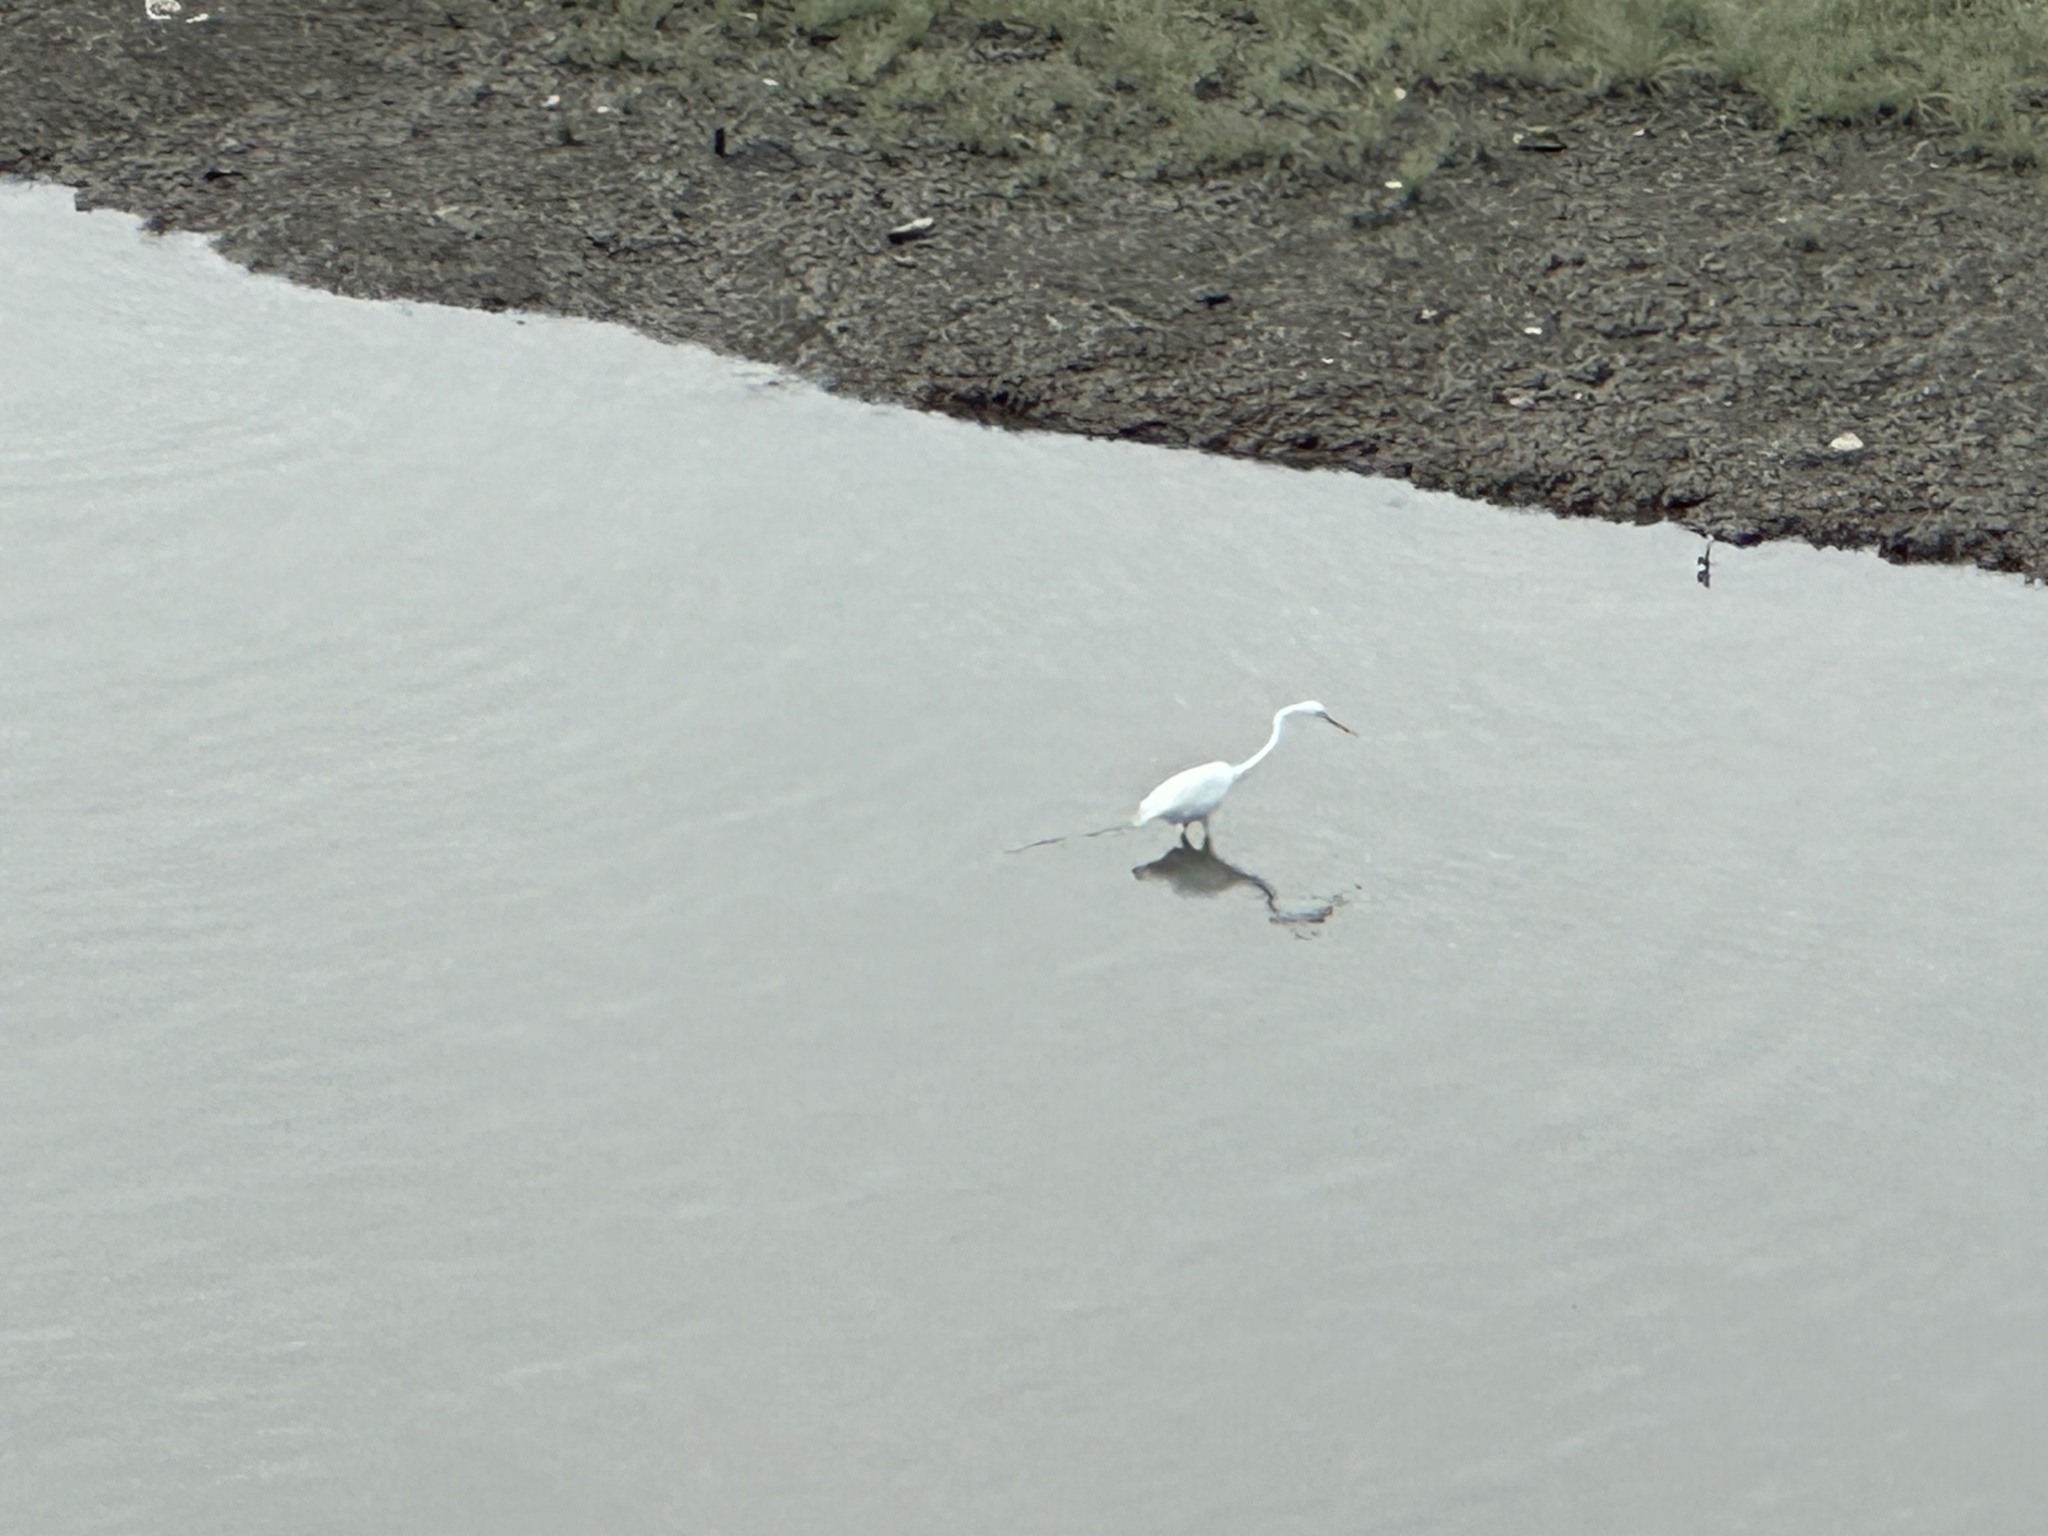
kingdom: Animalia
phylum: Chordata
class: Aves
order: Pelecaniformes
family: Ardeidae
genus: Ardea
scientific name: Ardea alba
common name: Great egret
